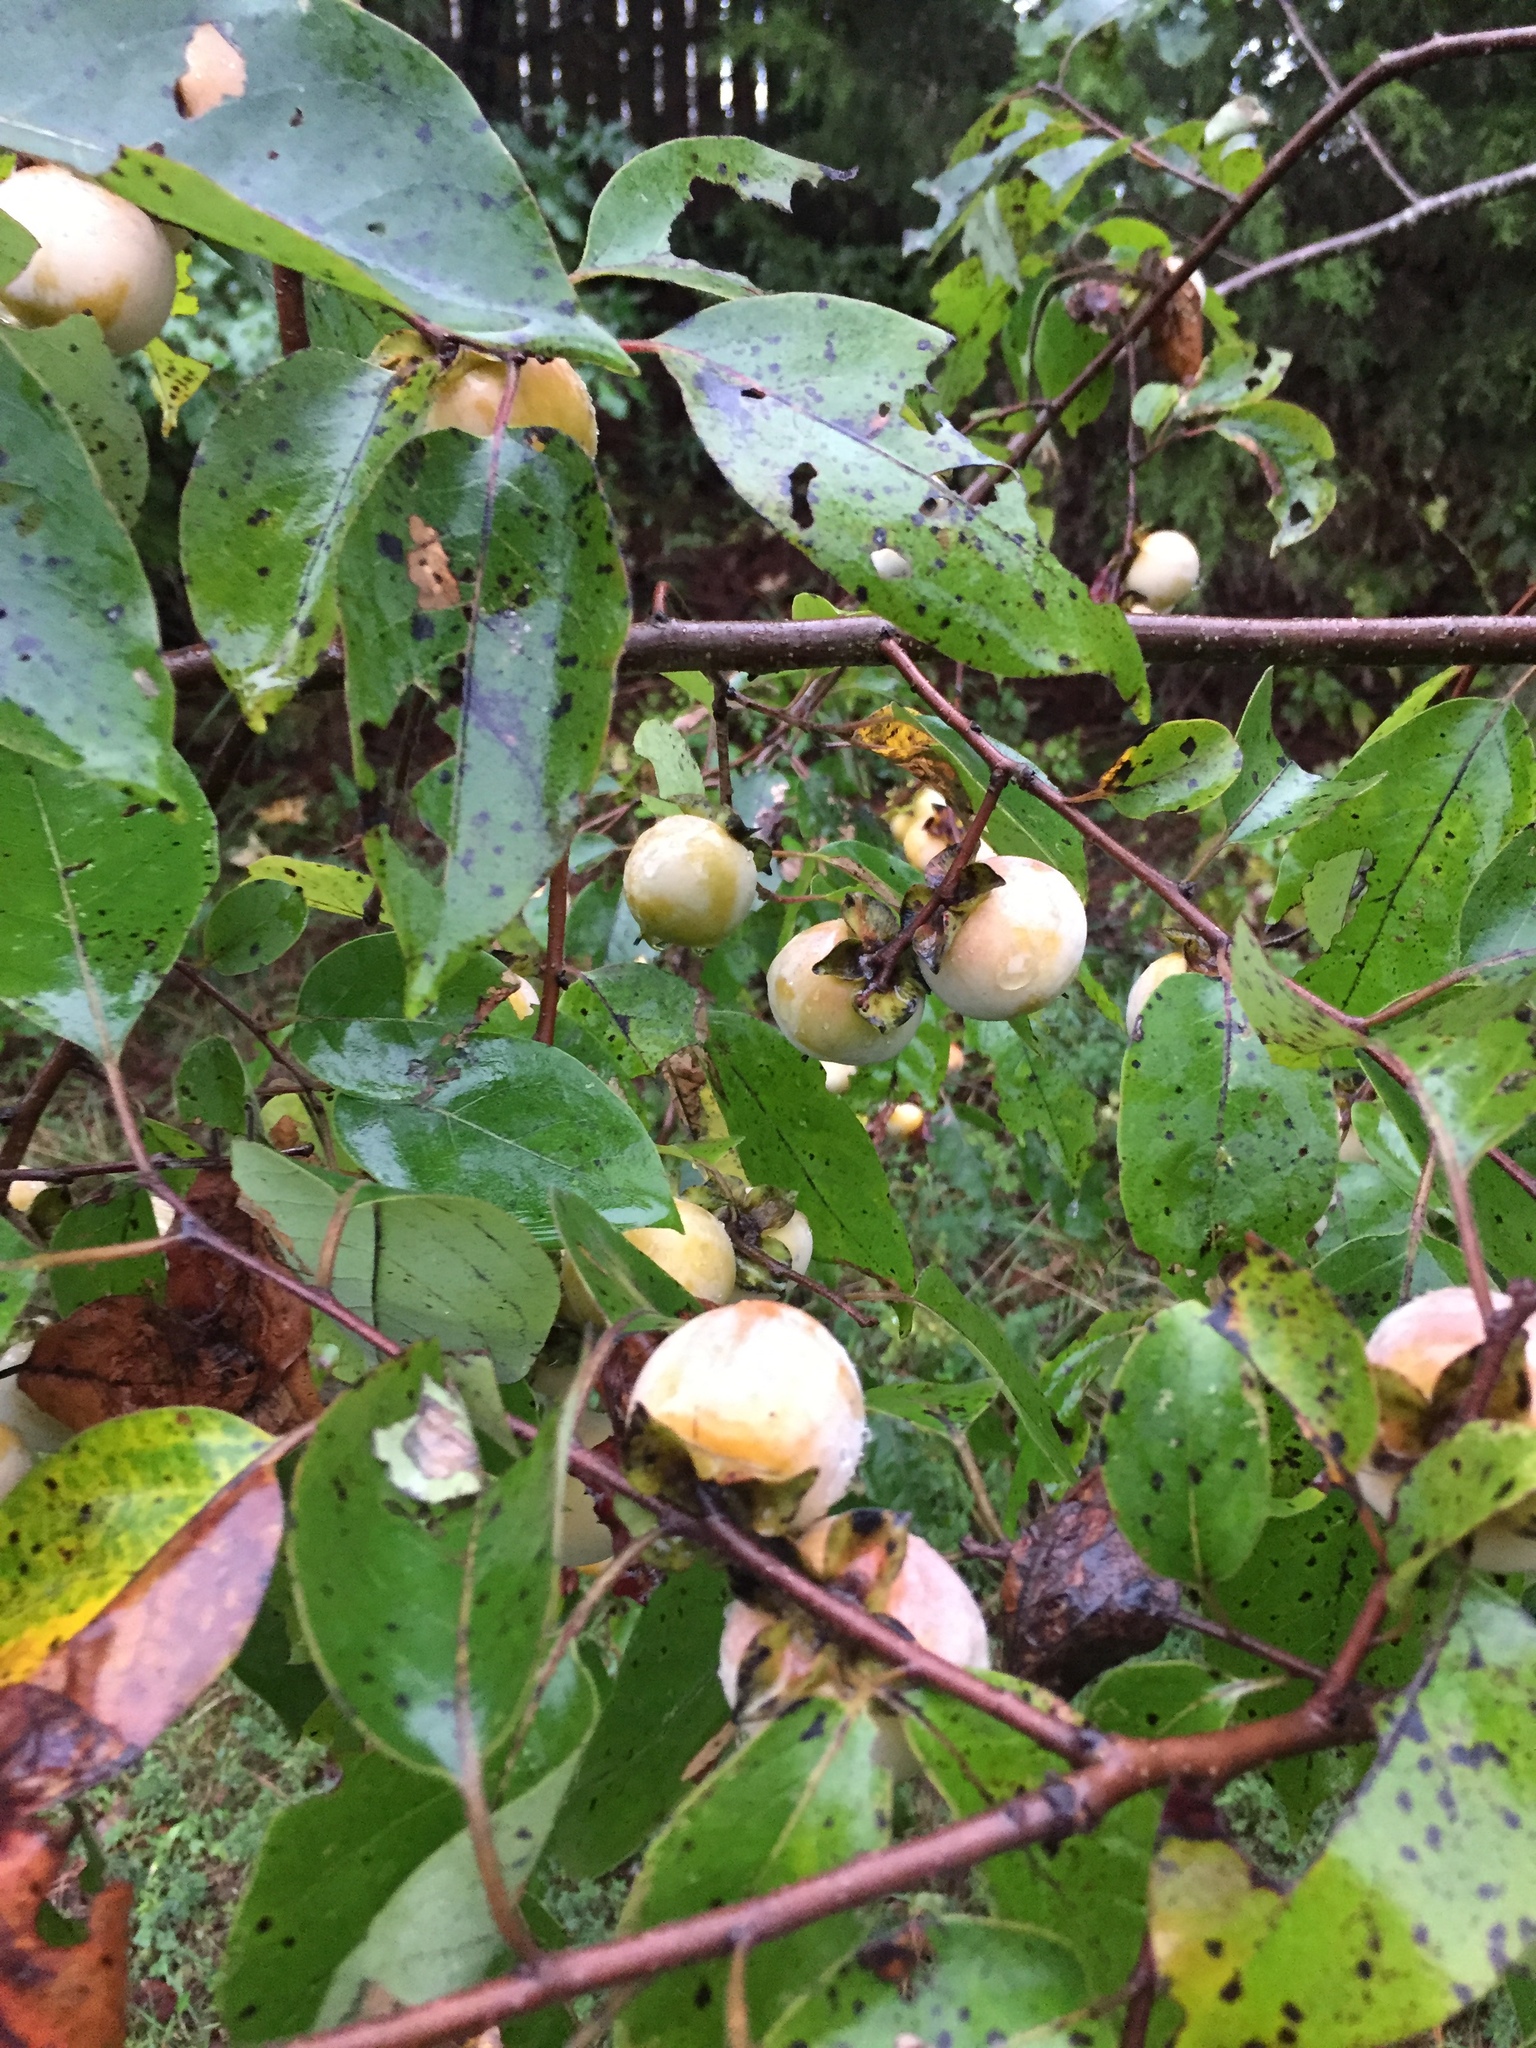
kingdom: Plantae
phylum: Tracheophyta
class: Magnoliopsida
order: Ericales
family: Ebenaceae
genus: Diospyros
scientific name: Diospyros virginiana
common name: Persimmon
